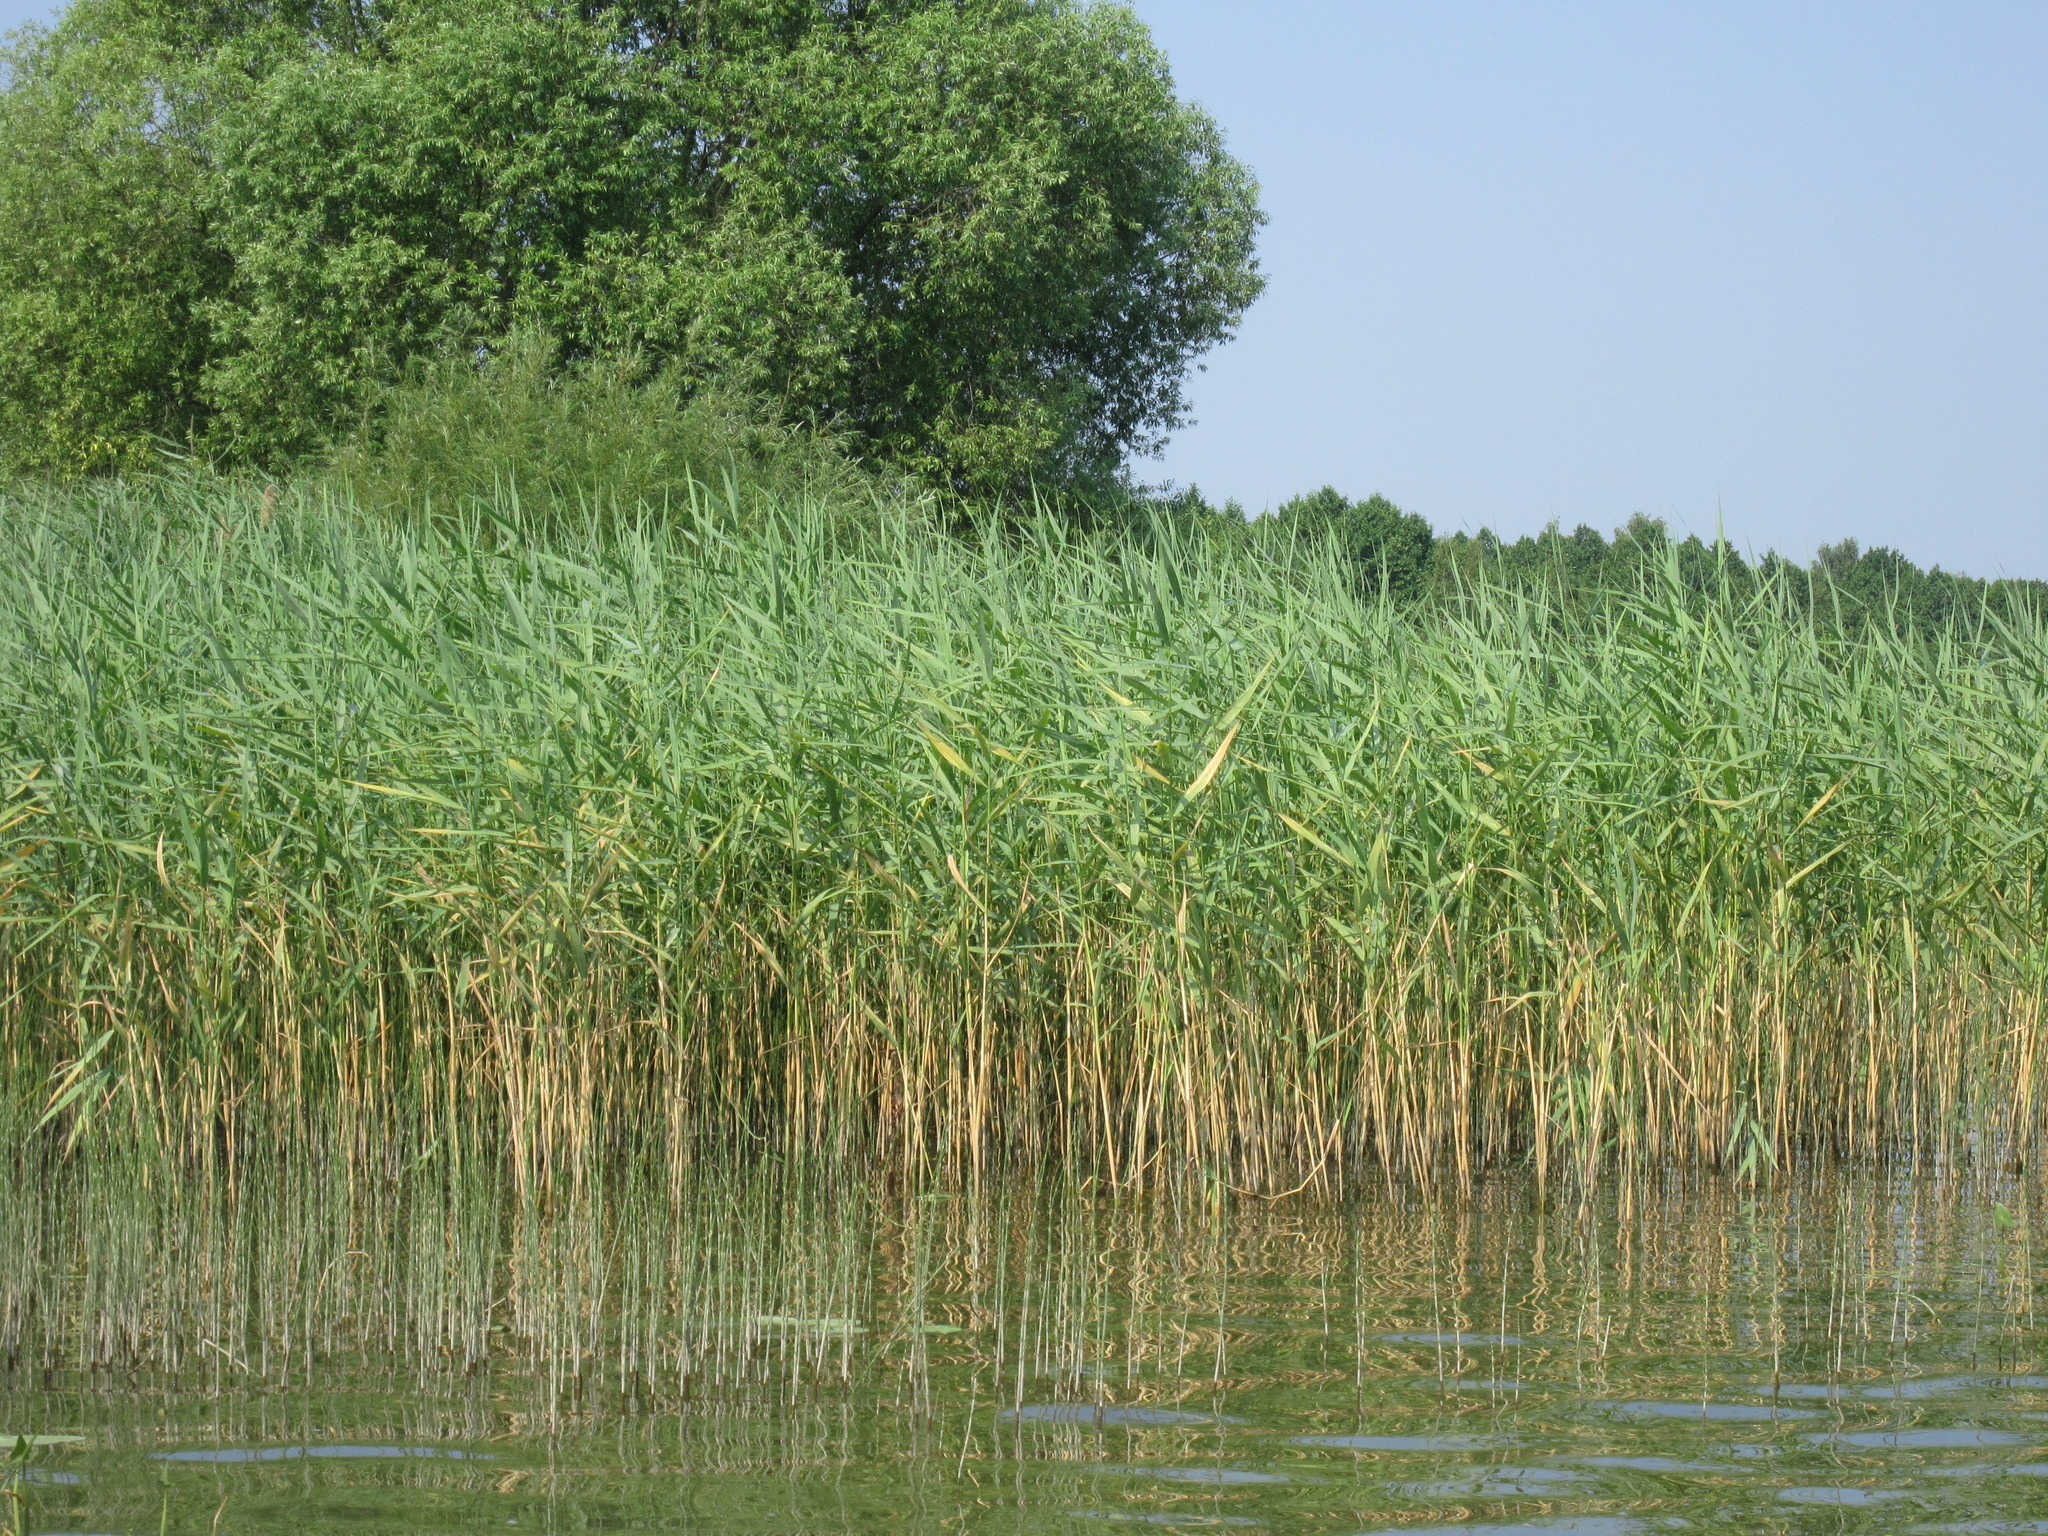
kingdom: Plantae
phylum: Tracheophyta
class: Liliopsida
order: Poales
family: Poaceae
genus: Phragmites
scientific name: Phragmites australis
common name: Common reed
